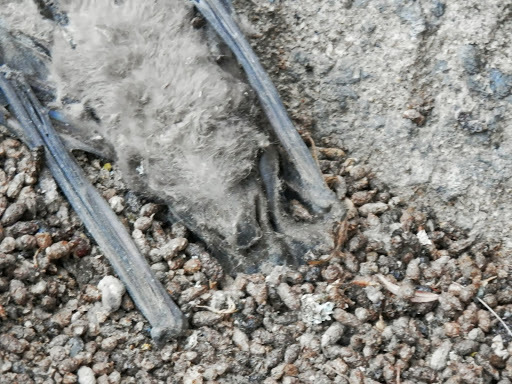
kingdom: Animalia
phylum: Chordata
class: Mammalia
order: Chiroptera
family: Molossidae
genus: Tadarida
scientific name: Tadarida brasiliensis
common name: Mexican free-tailed bat
